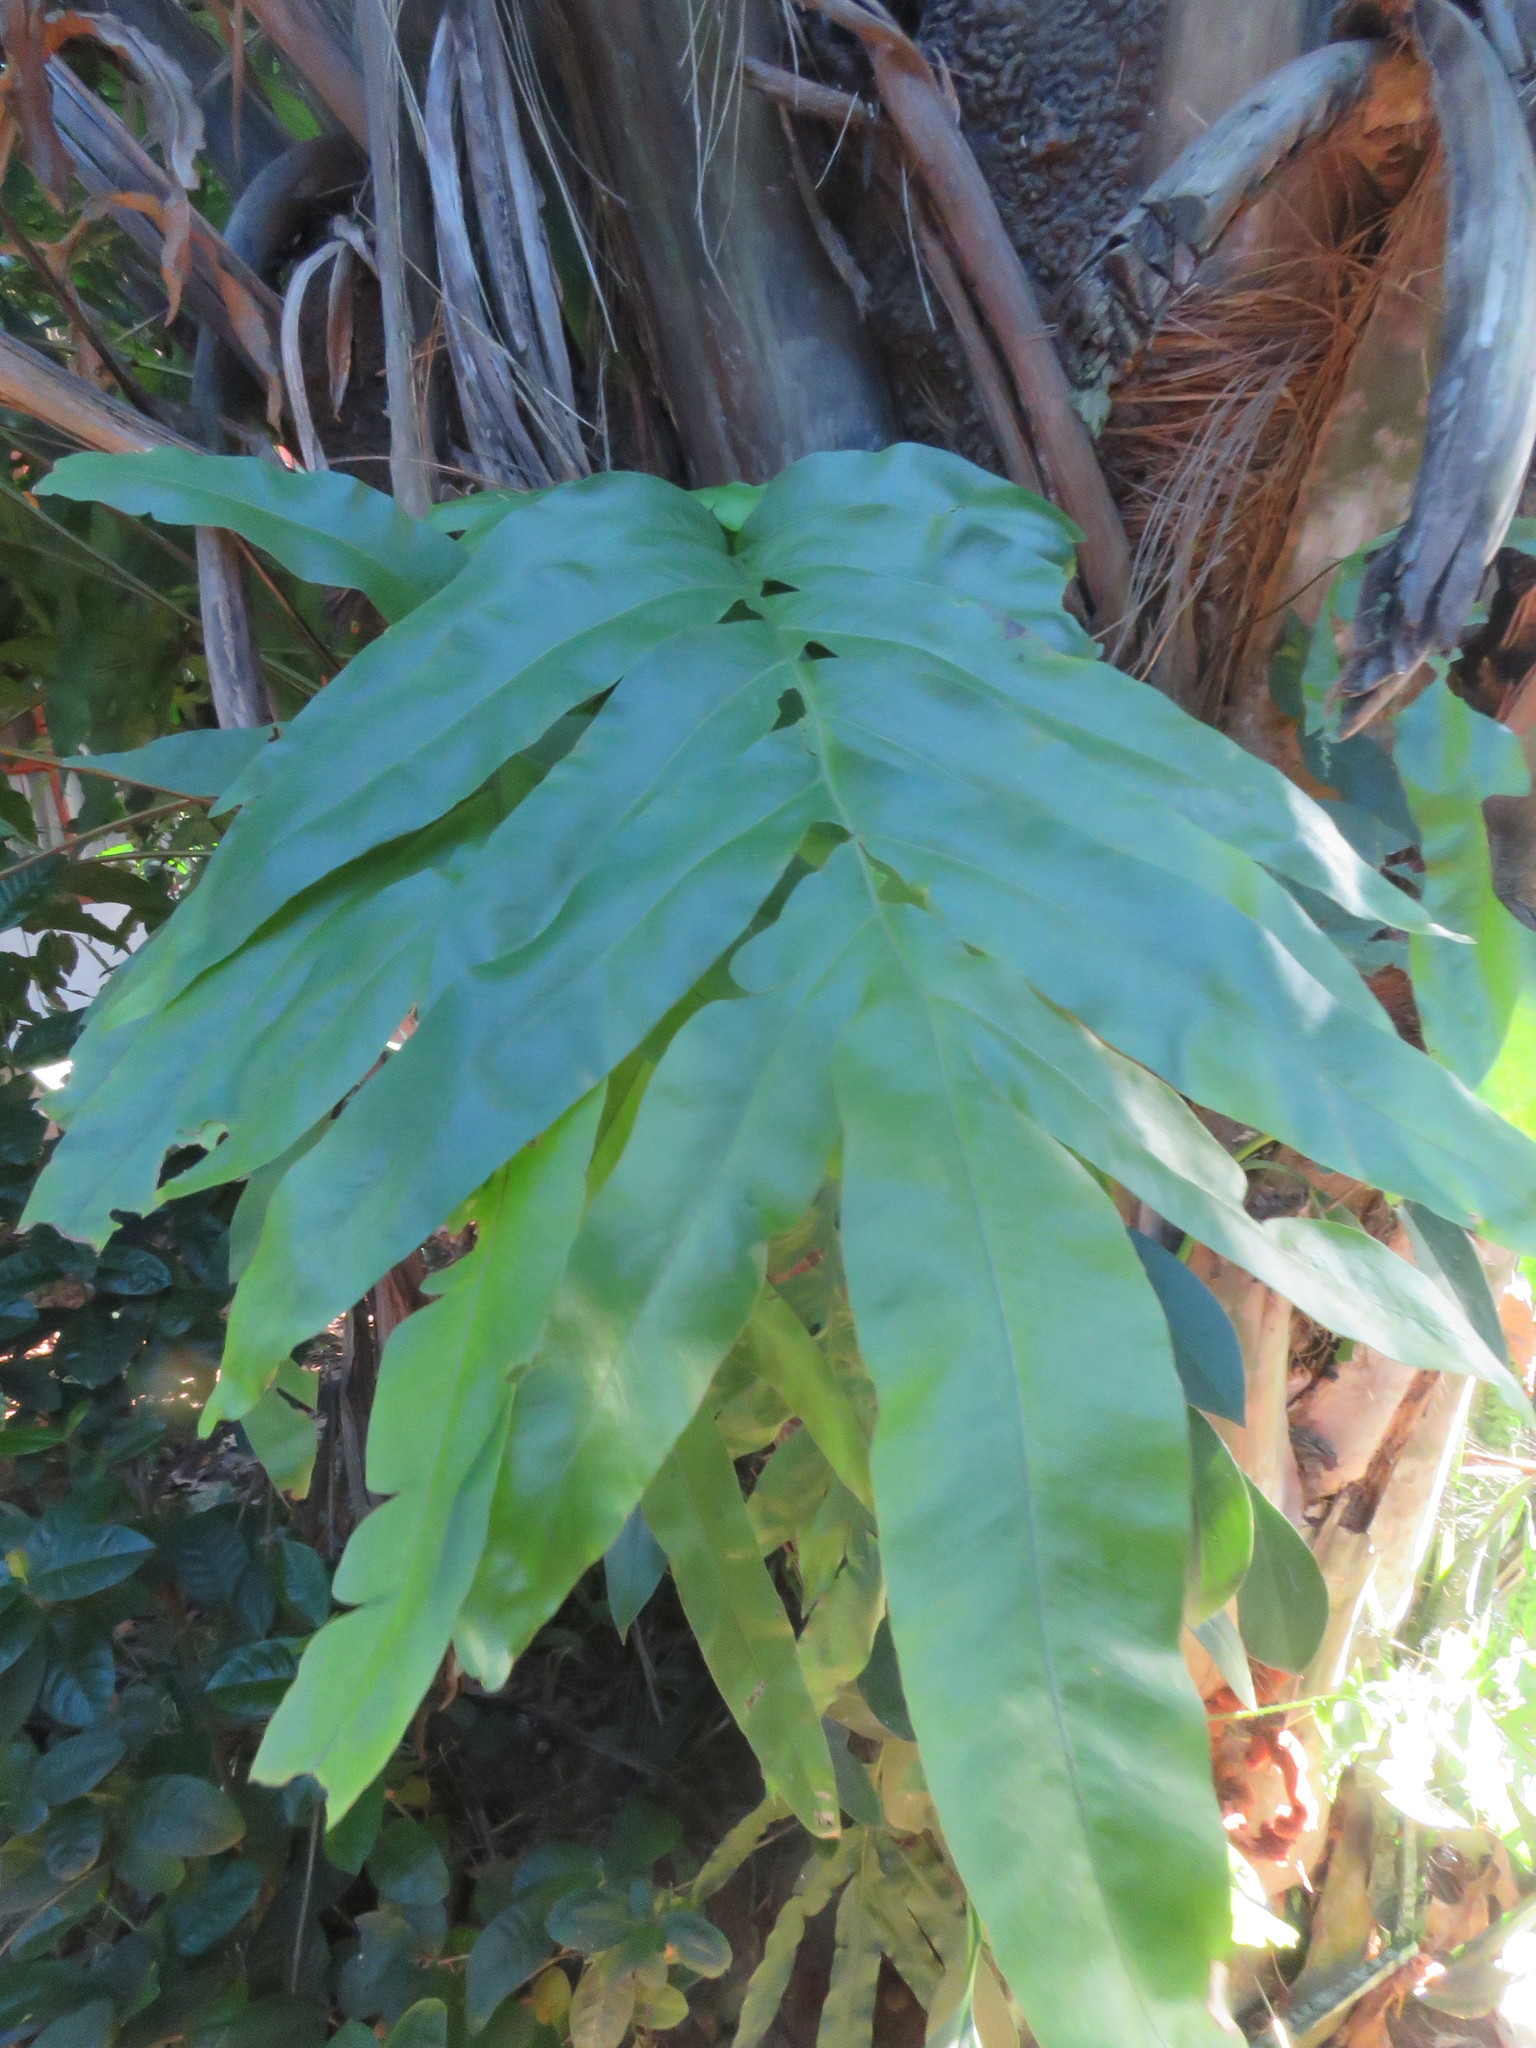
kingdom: Plantae
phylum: Tracheophyta
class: Polypodiopsida
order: Polypodiales
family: Polypodiaceae
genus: Phlebodium
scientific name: Phlebodium decumanum
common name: Golden polypod
